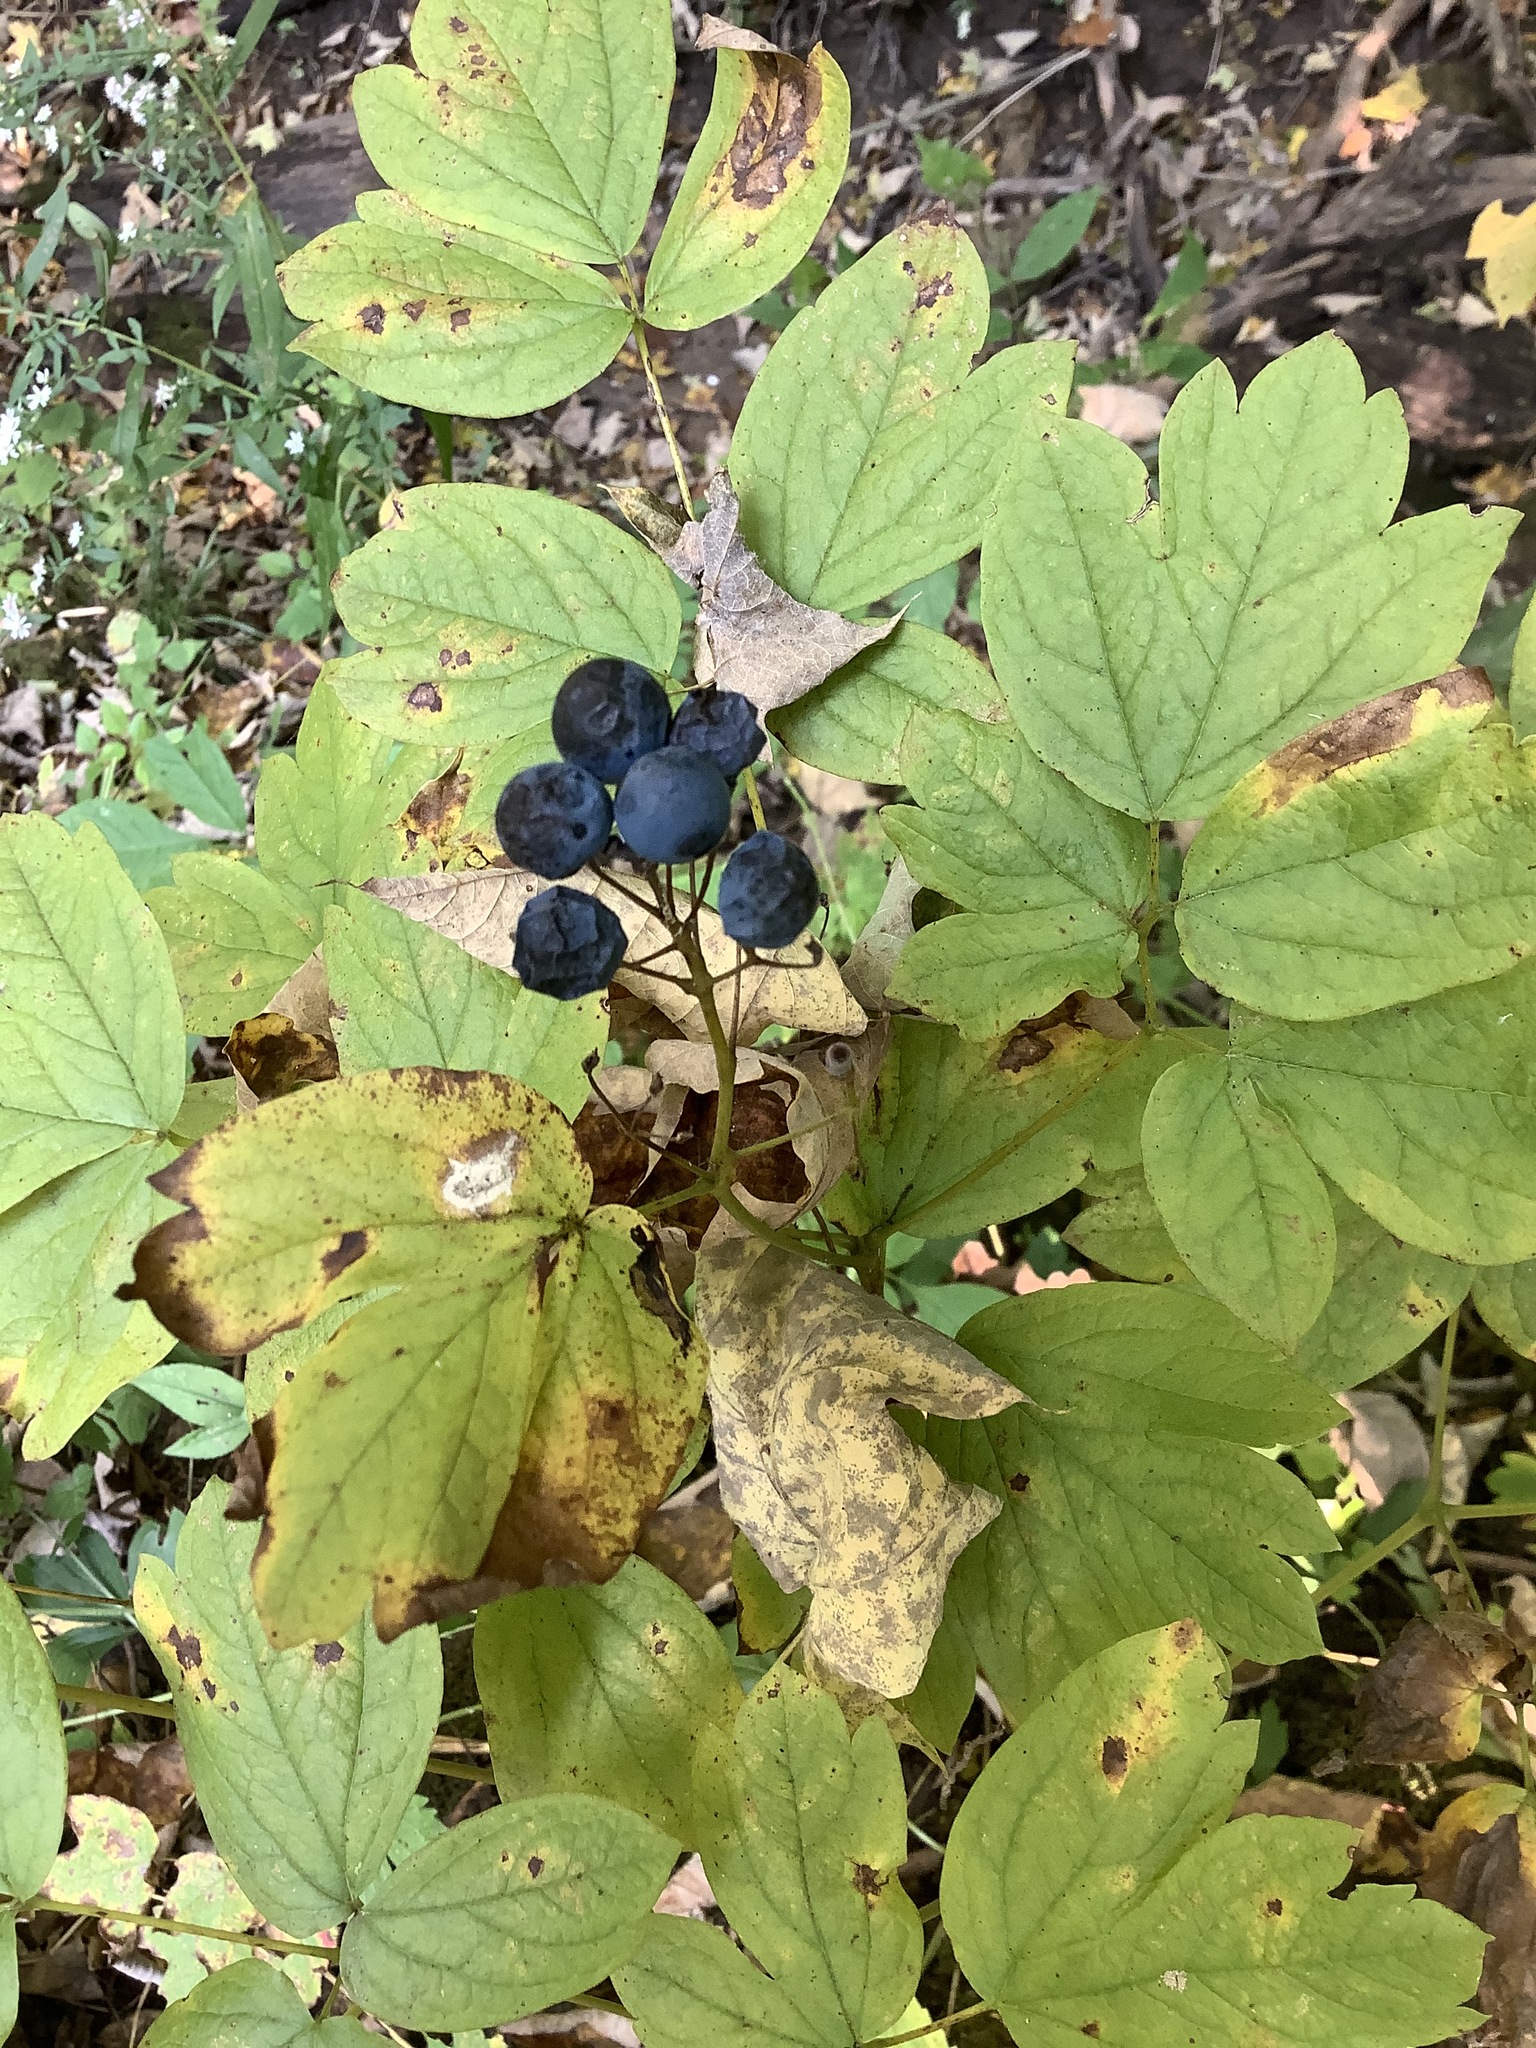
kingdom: Plantae
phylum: Tracheophyta
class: Magnoliopsida
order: Ranunculales
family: Berberidaceae
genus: Caulophyllum
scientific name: Caulophyllum thalictroides
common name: Blue cohosh
